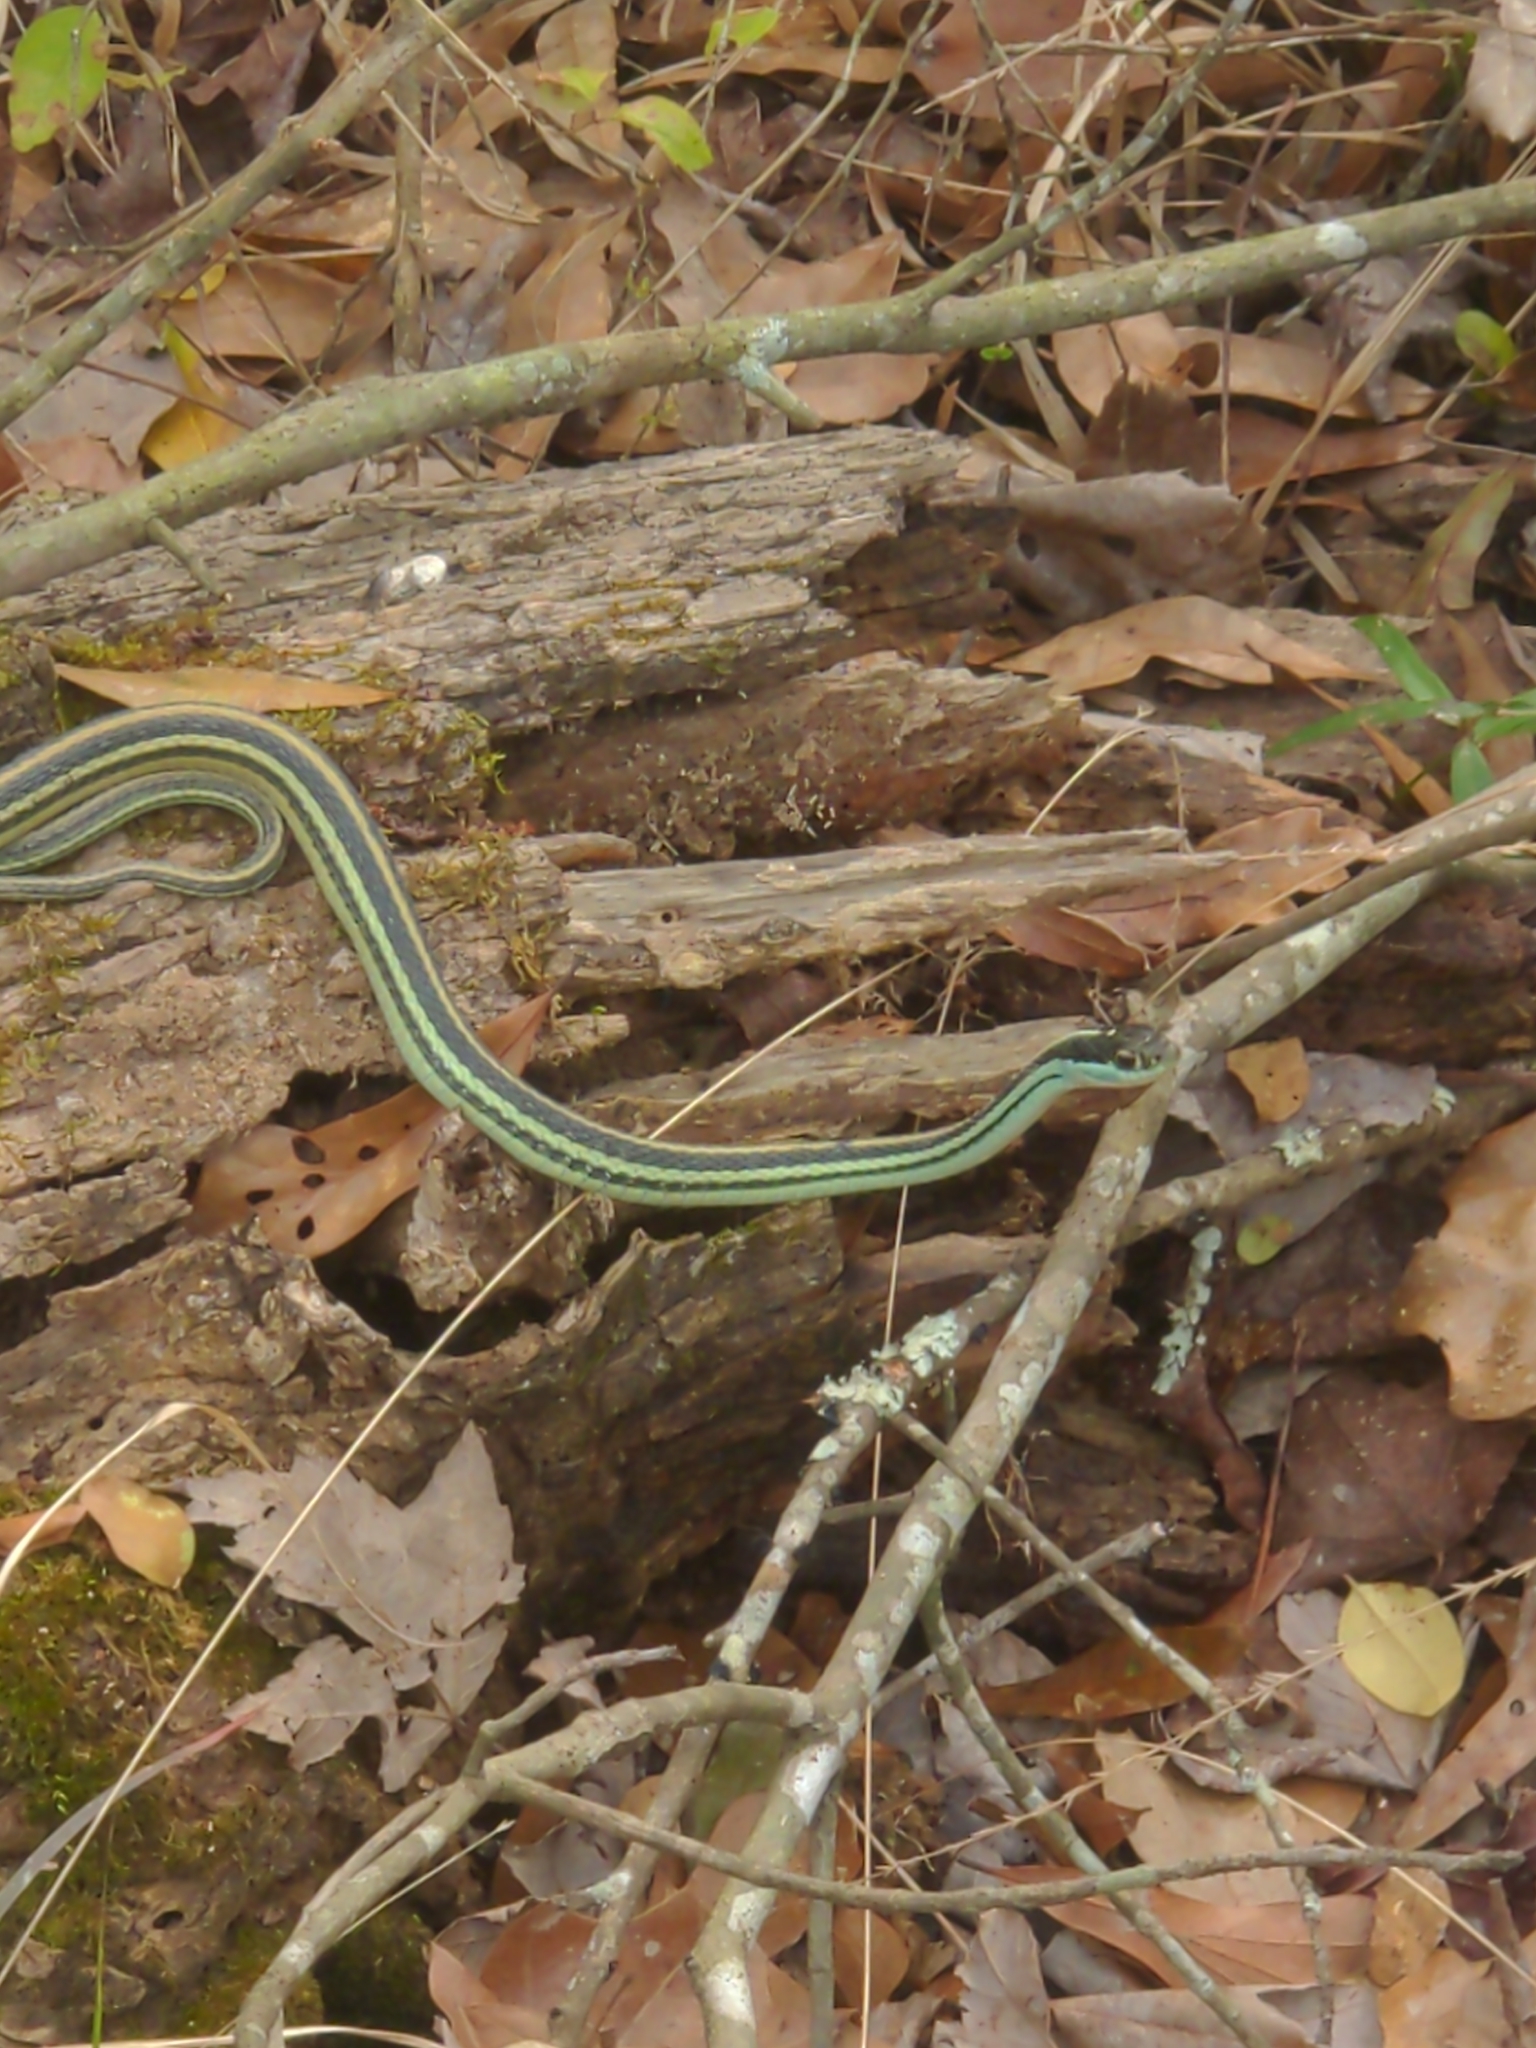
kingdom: Animalia
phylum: Chordata
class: Squamata
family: Colubridae
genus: Thamnophis
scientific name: Thamnophis proximus
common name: Western ribbon snake
